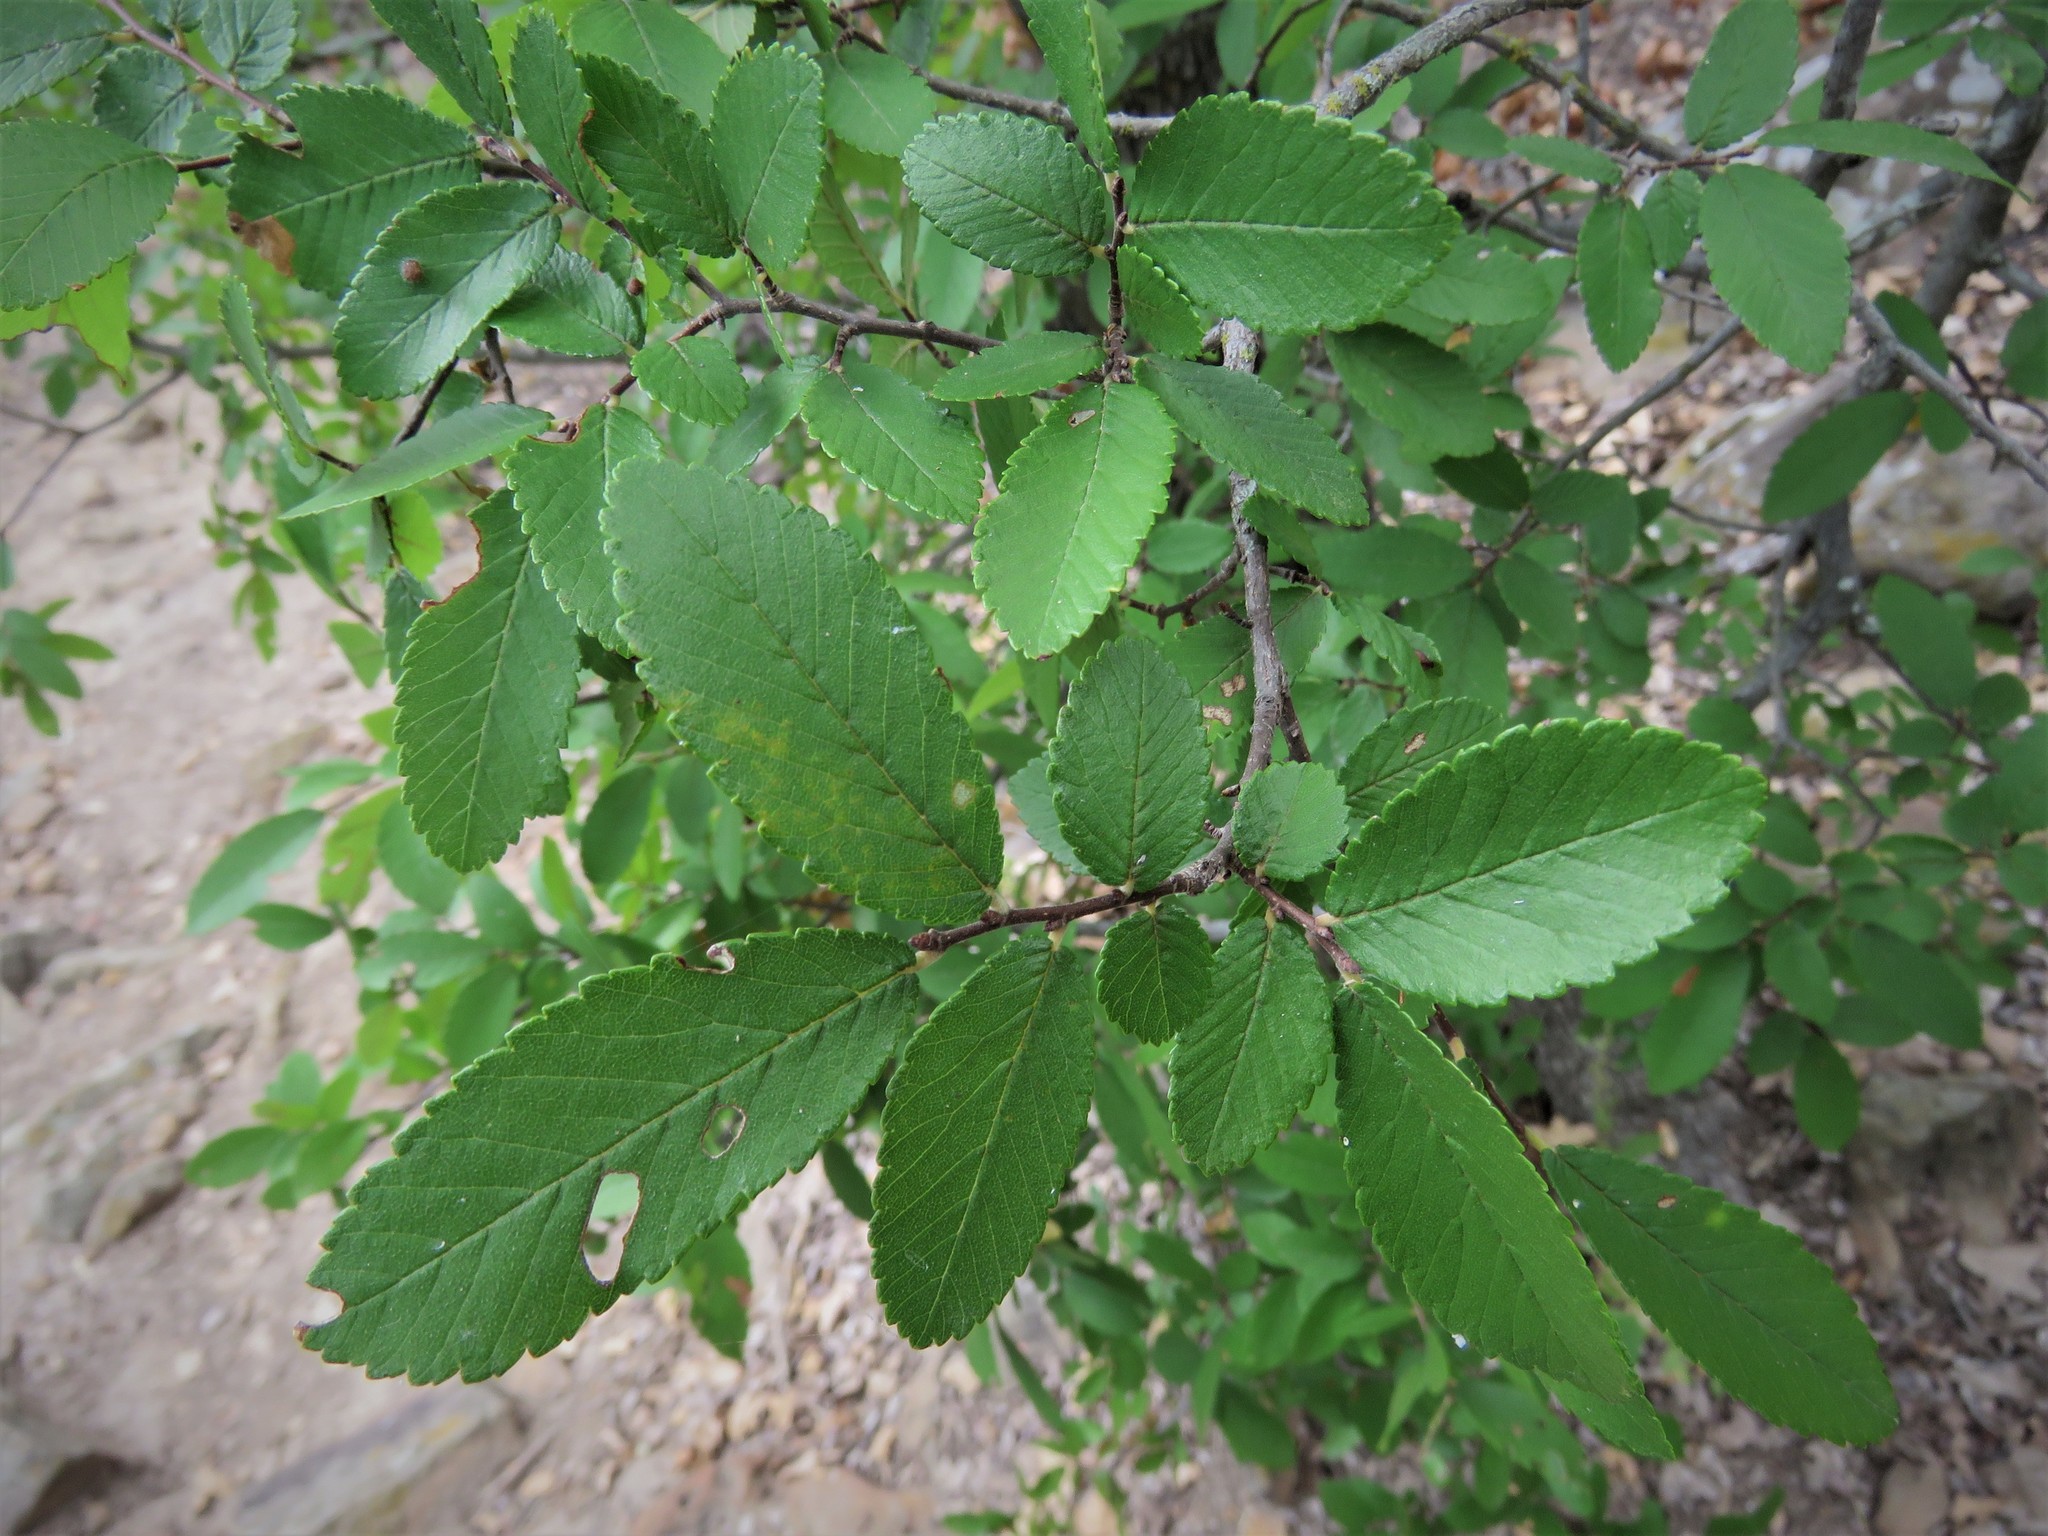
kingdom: Plantae
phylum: Tracheophyta
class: Magnoliopsida
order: Rosales
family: Ulmaceae
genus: Ulmus
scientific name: Ulmus crassifolia
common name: Basket elm
